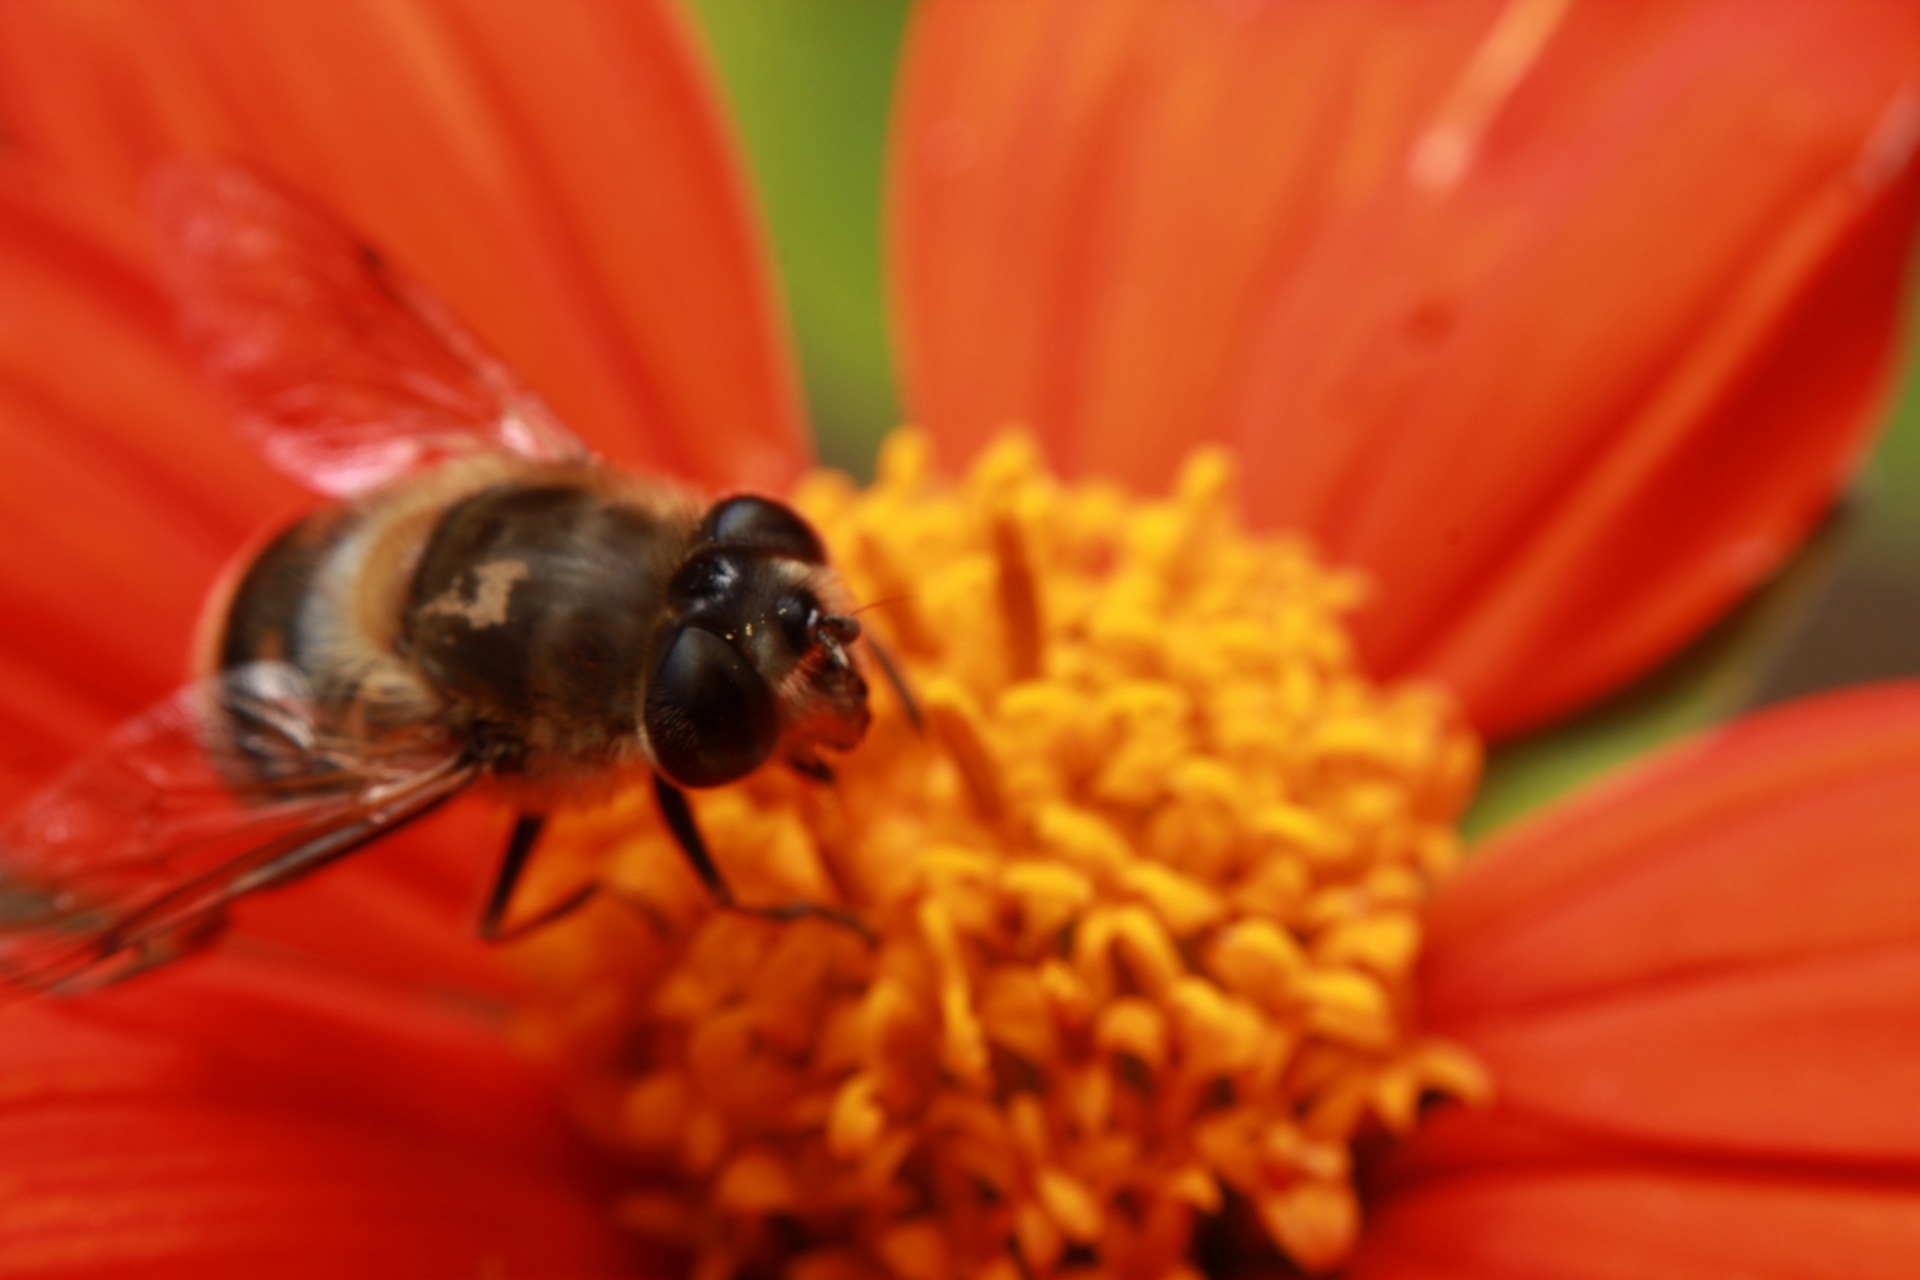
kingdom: Animalia
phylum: Arthropoda
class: Insecta
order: Diptera
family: Syrphidae
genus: Eristalis
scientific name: Eristalis tenax
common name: Drone fly
